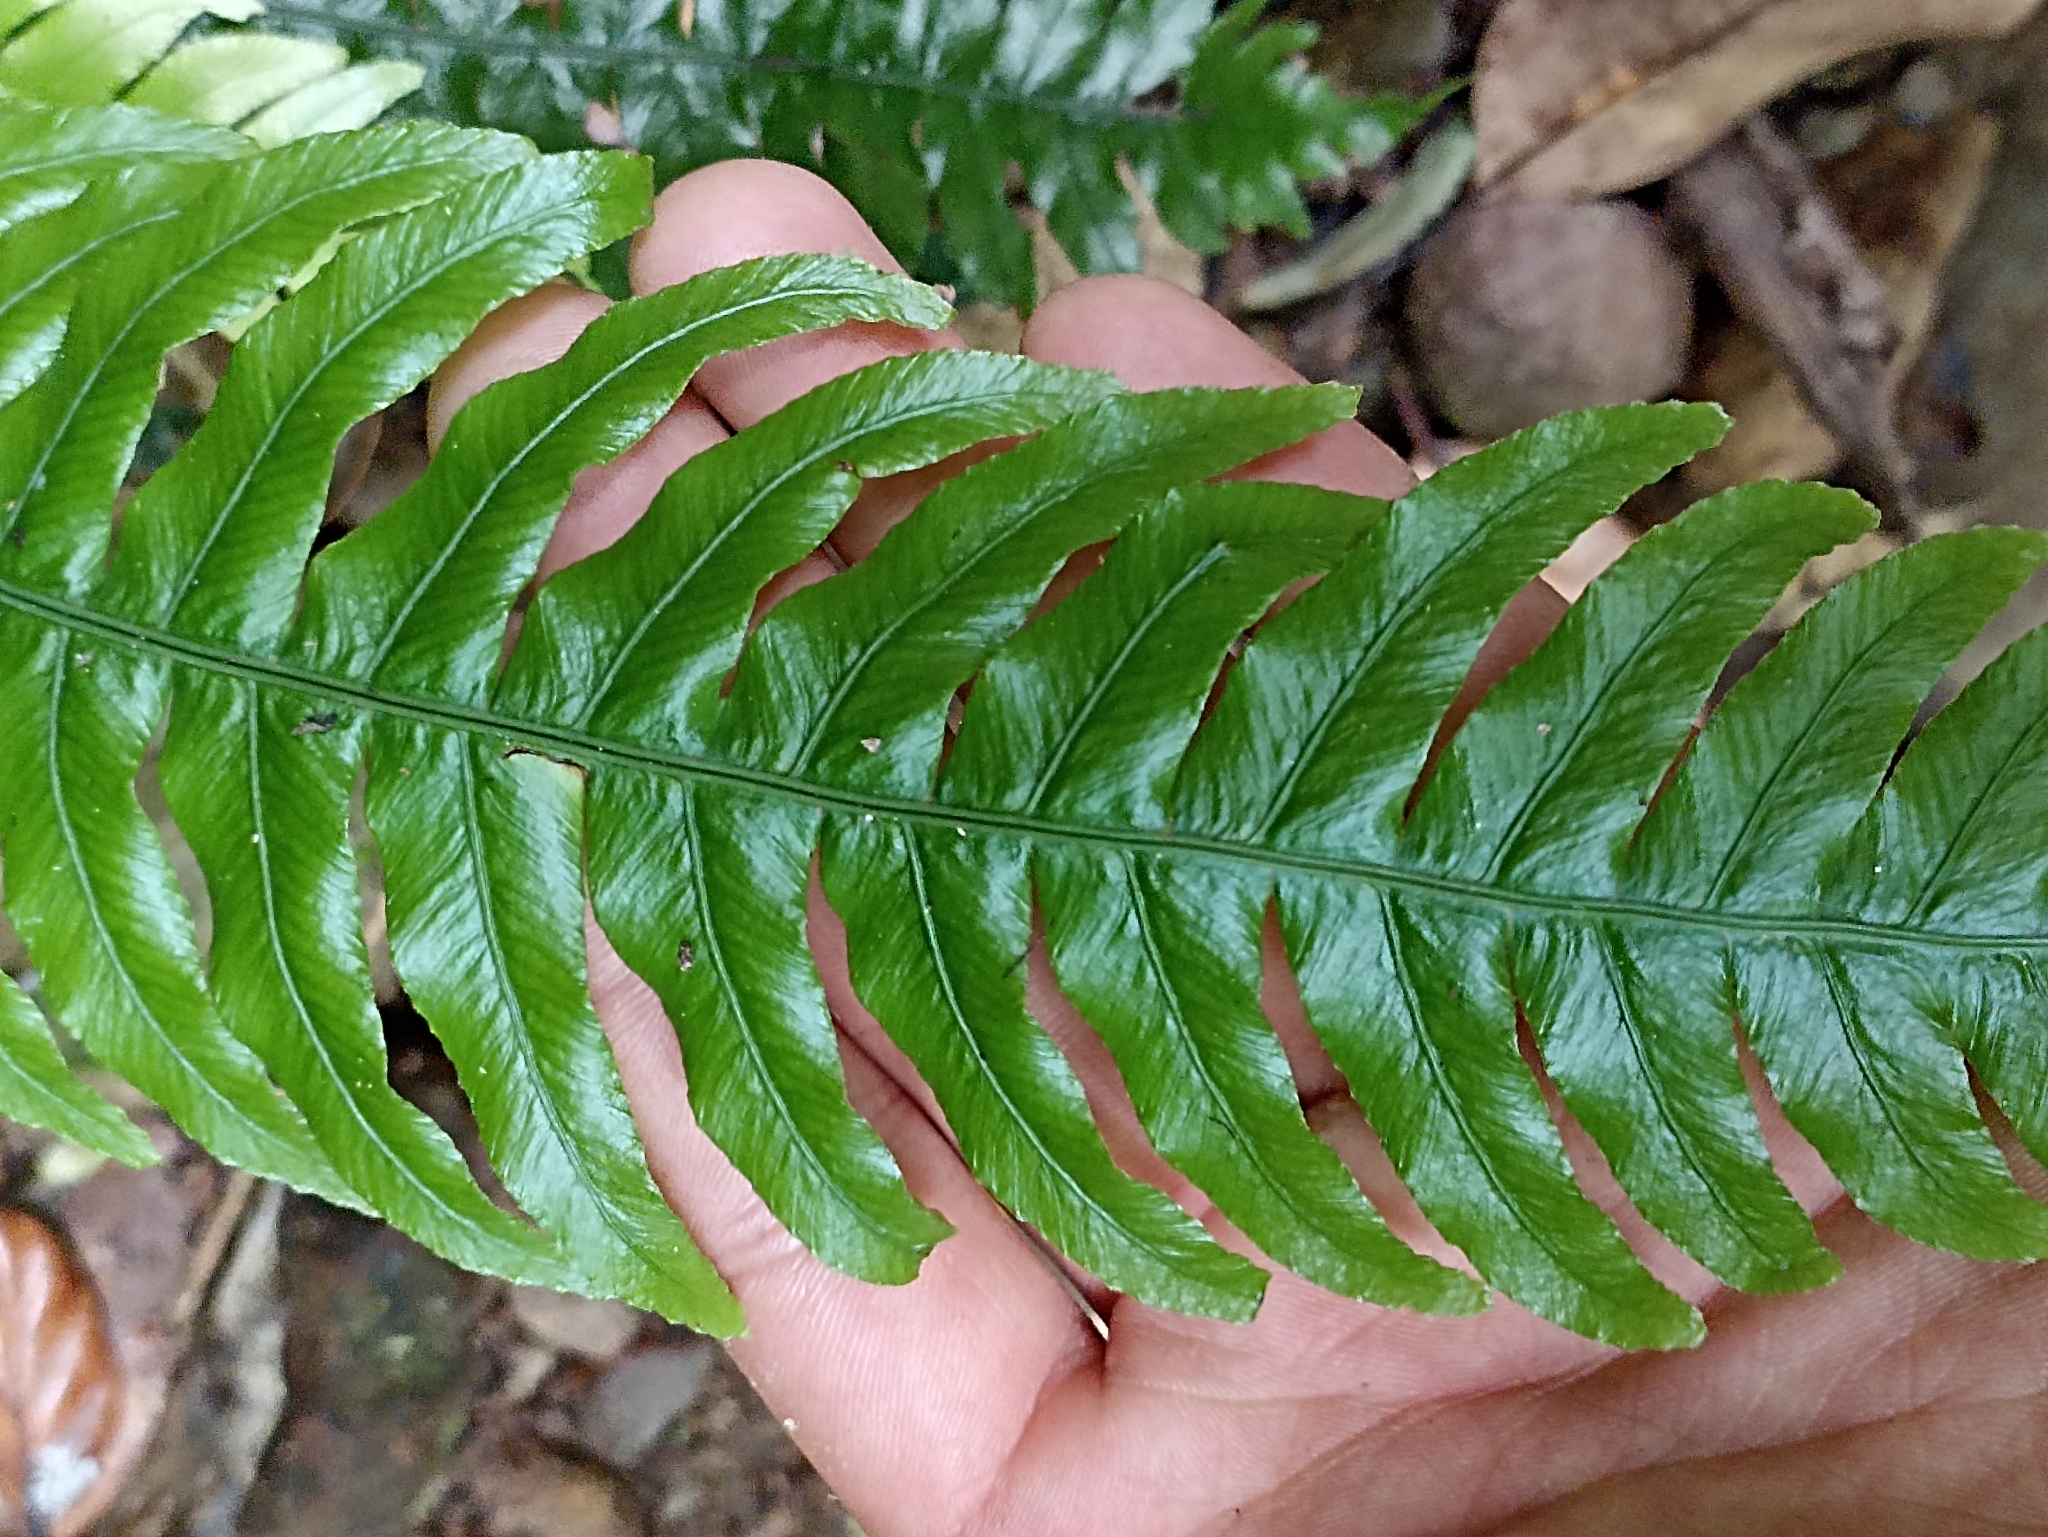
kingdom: Plantae
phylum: Tracheophyta
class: Polypodiopsida
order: Polypodiales
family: Blechnaceae
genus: Austroblechnum
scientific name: Austroblechnum lanceolatum
